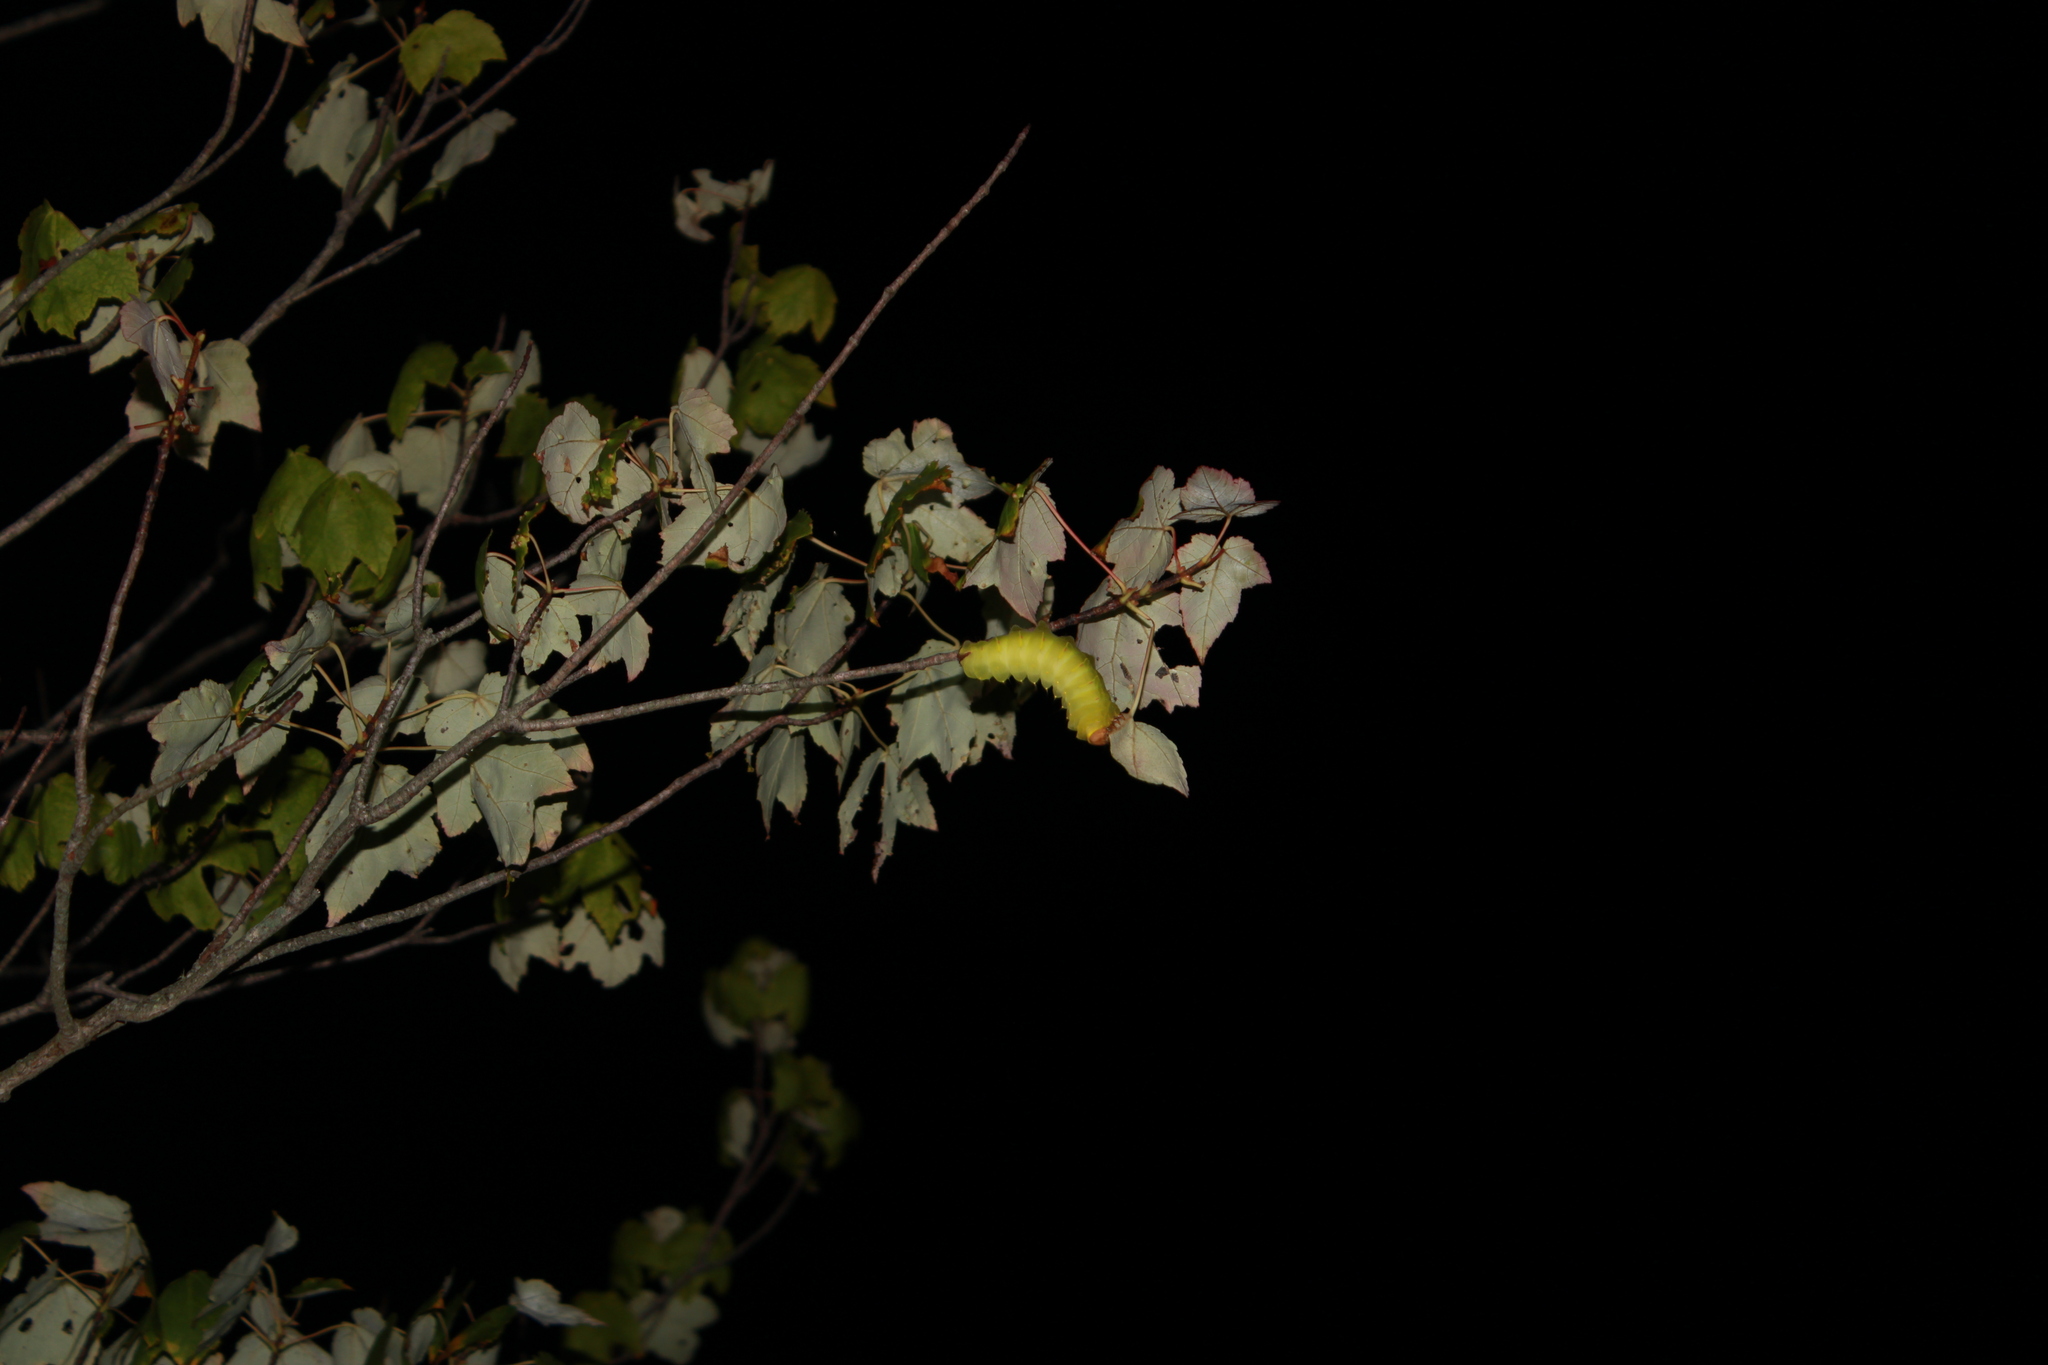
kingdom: Animalia
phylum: Arthropoda
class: Insecta
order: Lepidoptera
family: Saturniidae
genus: Antheraea
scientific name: Antheraea polyphemus
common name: Polyphemus moth
